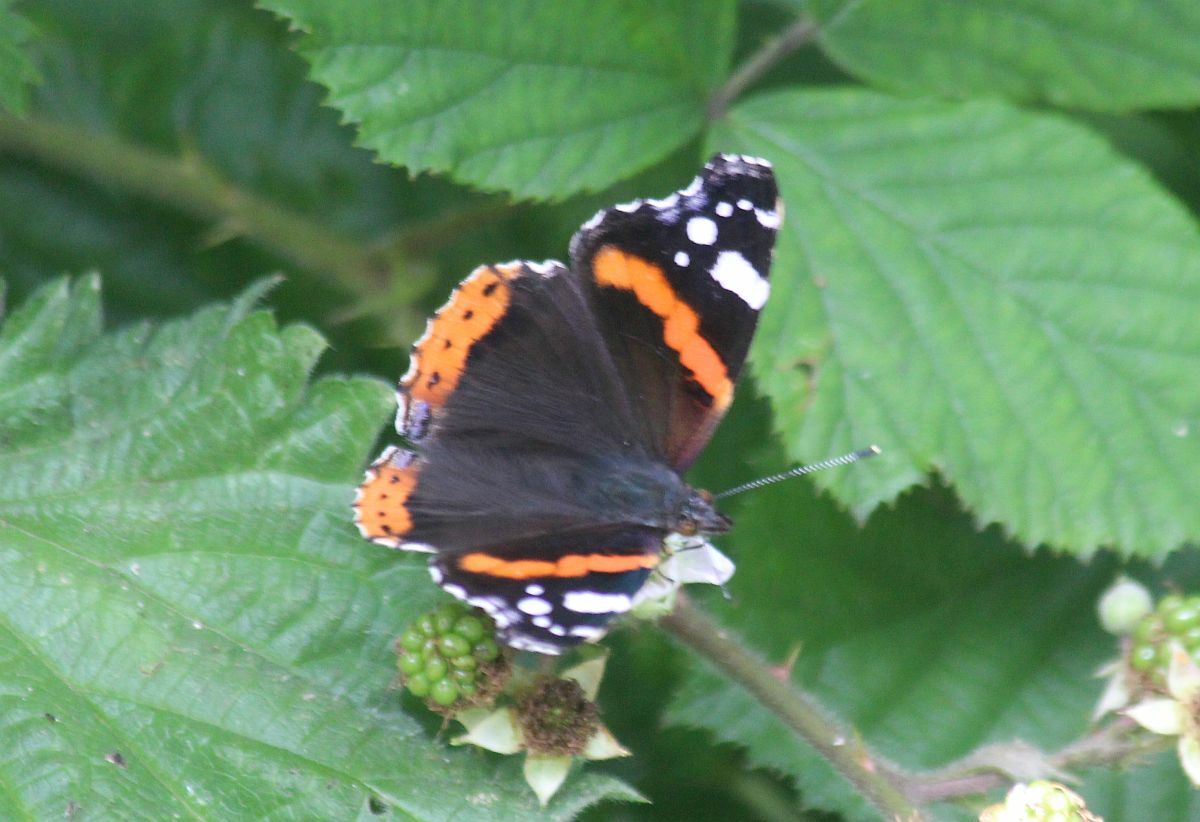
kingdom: Animalia
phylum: Arthropoda
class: Insecta
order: Lepidoptera
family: Nymphalidae
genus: Vanessa
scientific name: Vanessa atalanta
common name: Red admiral
